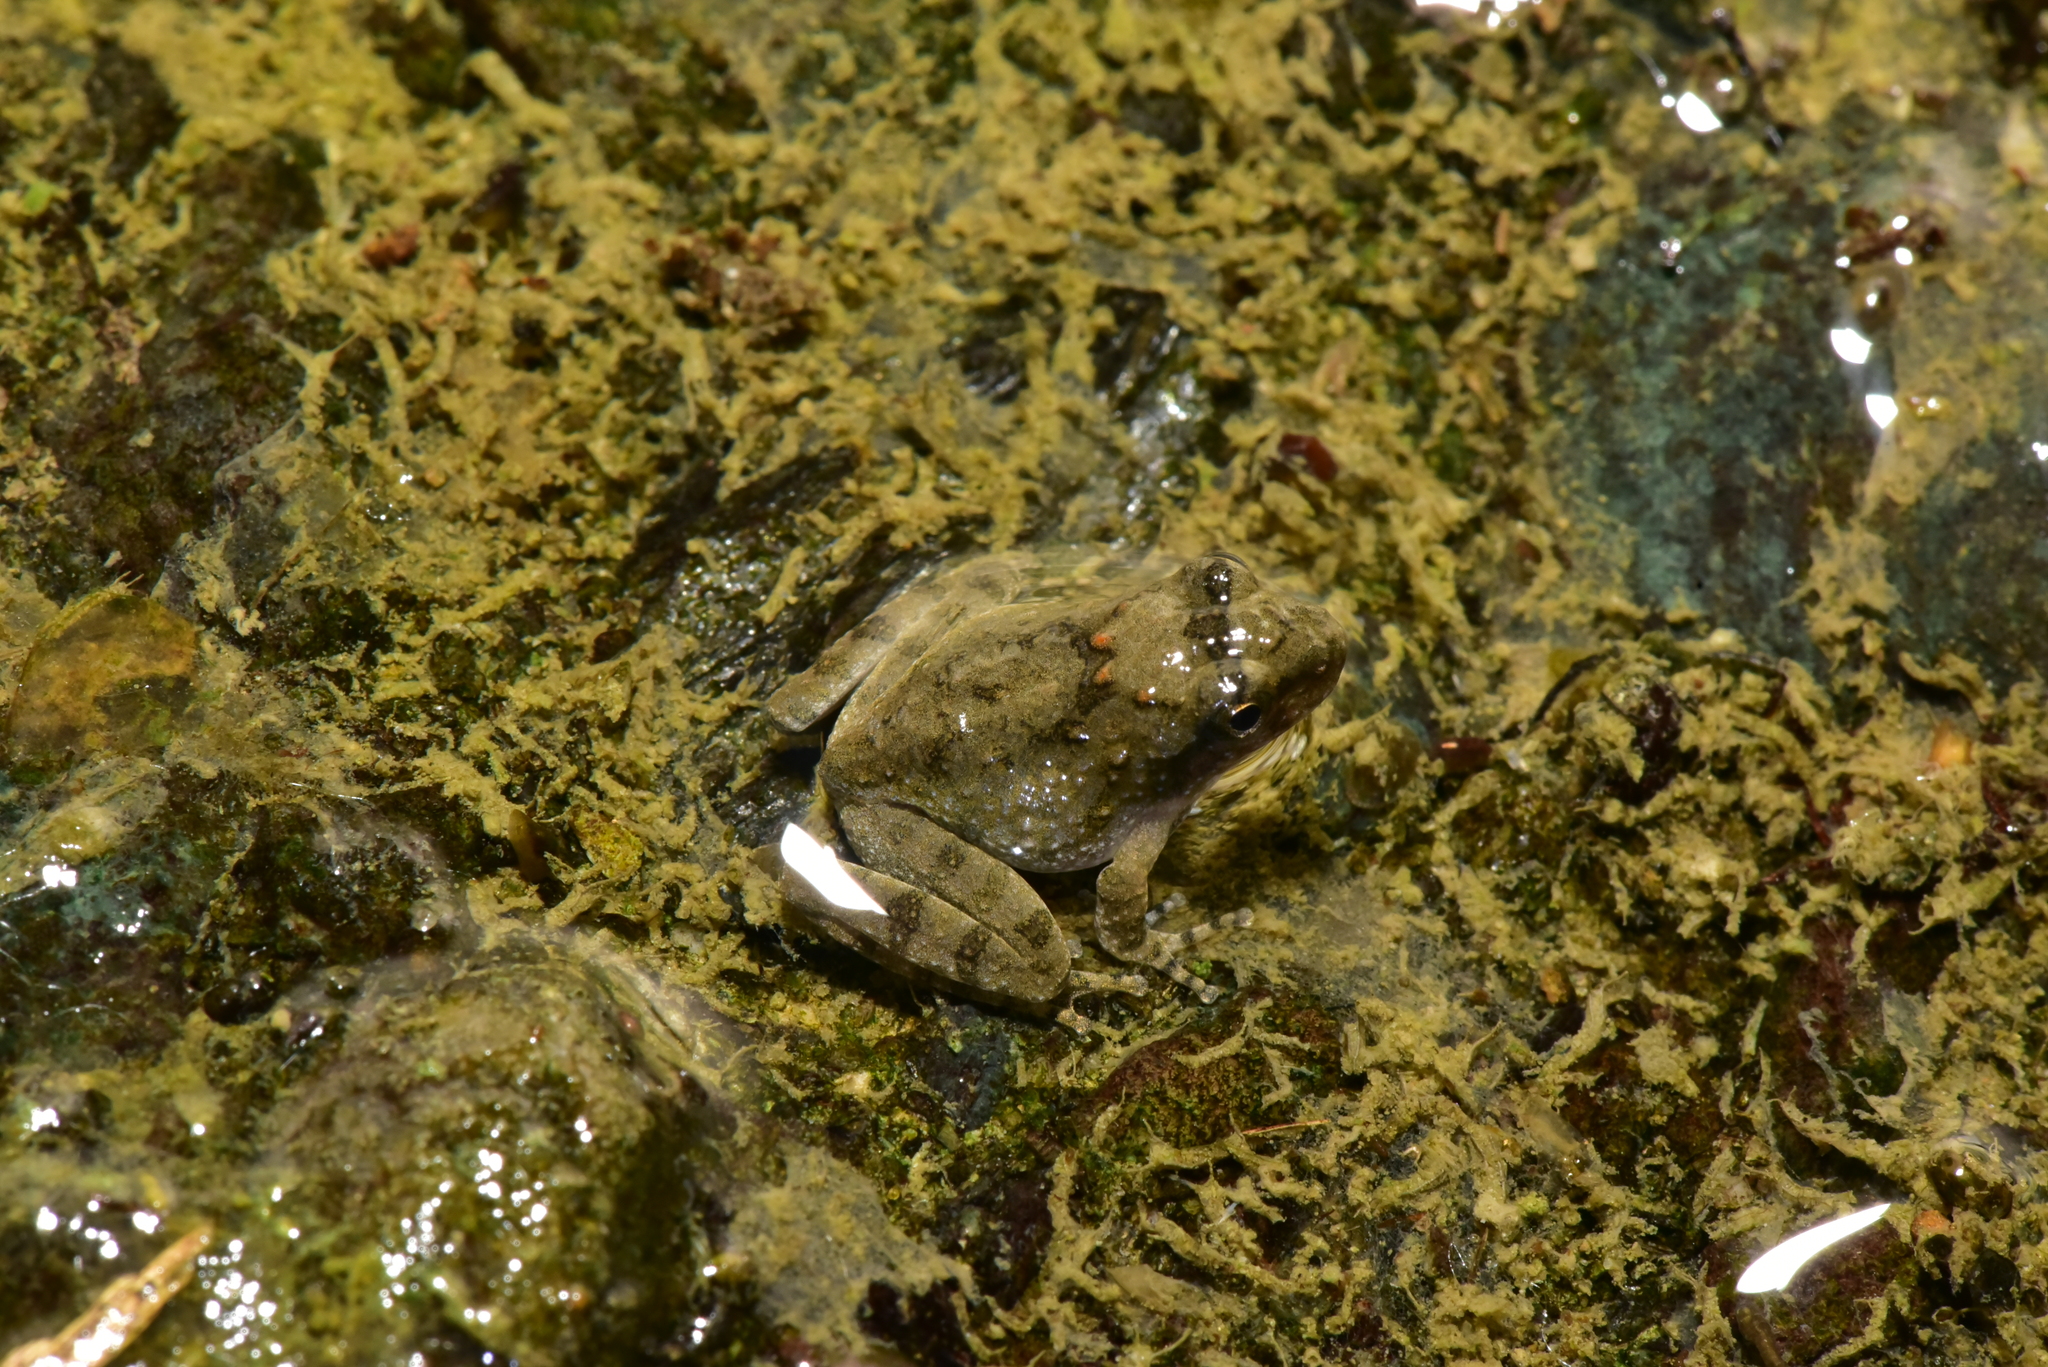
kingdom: Animalia
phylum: Chordata
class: Amphibia
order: Anura
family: Rhacophoridae
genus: Buergeria
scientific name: Buergeria otai
